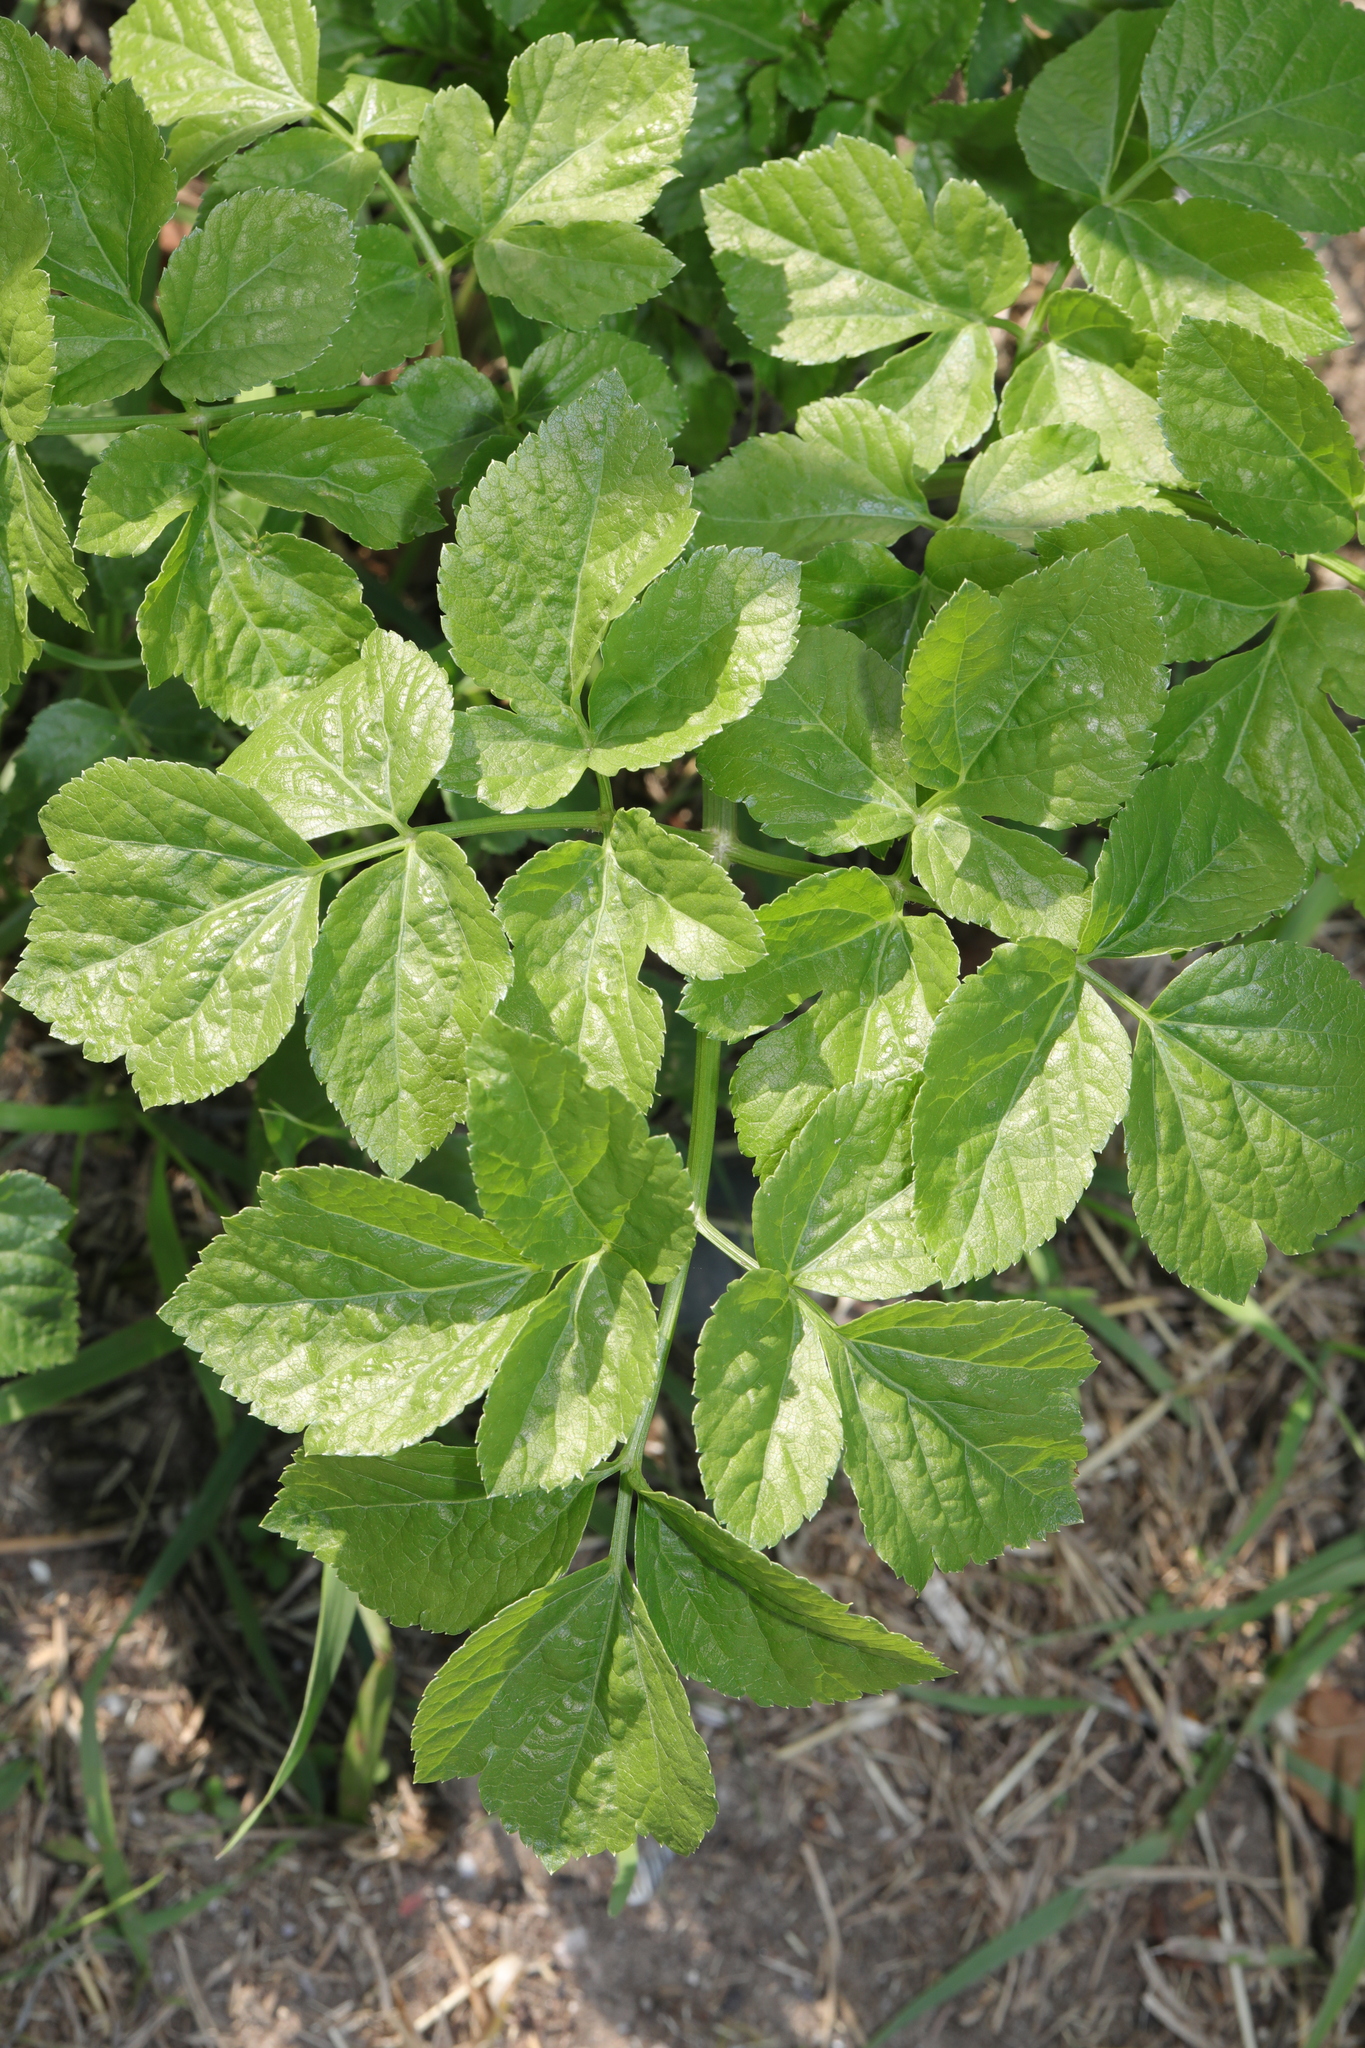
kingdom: Plantae
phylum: Tracheophyta
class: Magnoliopsida
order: Apiales
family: Apiaceae
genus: Smyrnium
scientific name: Smyrnium olusatrum
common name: Alexanders
